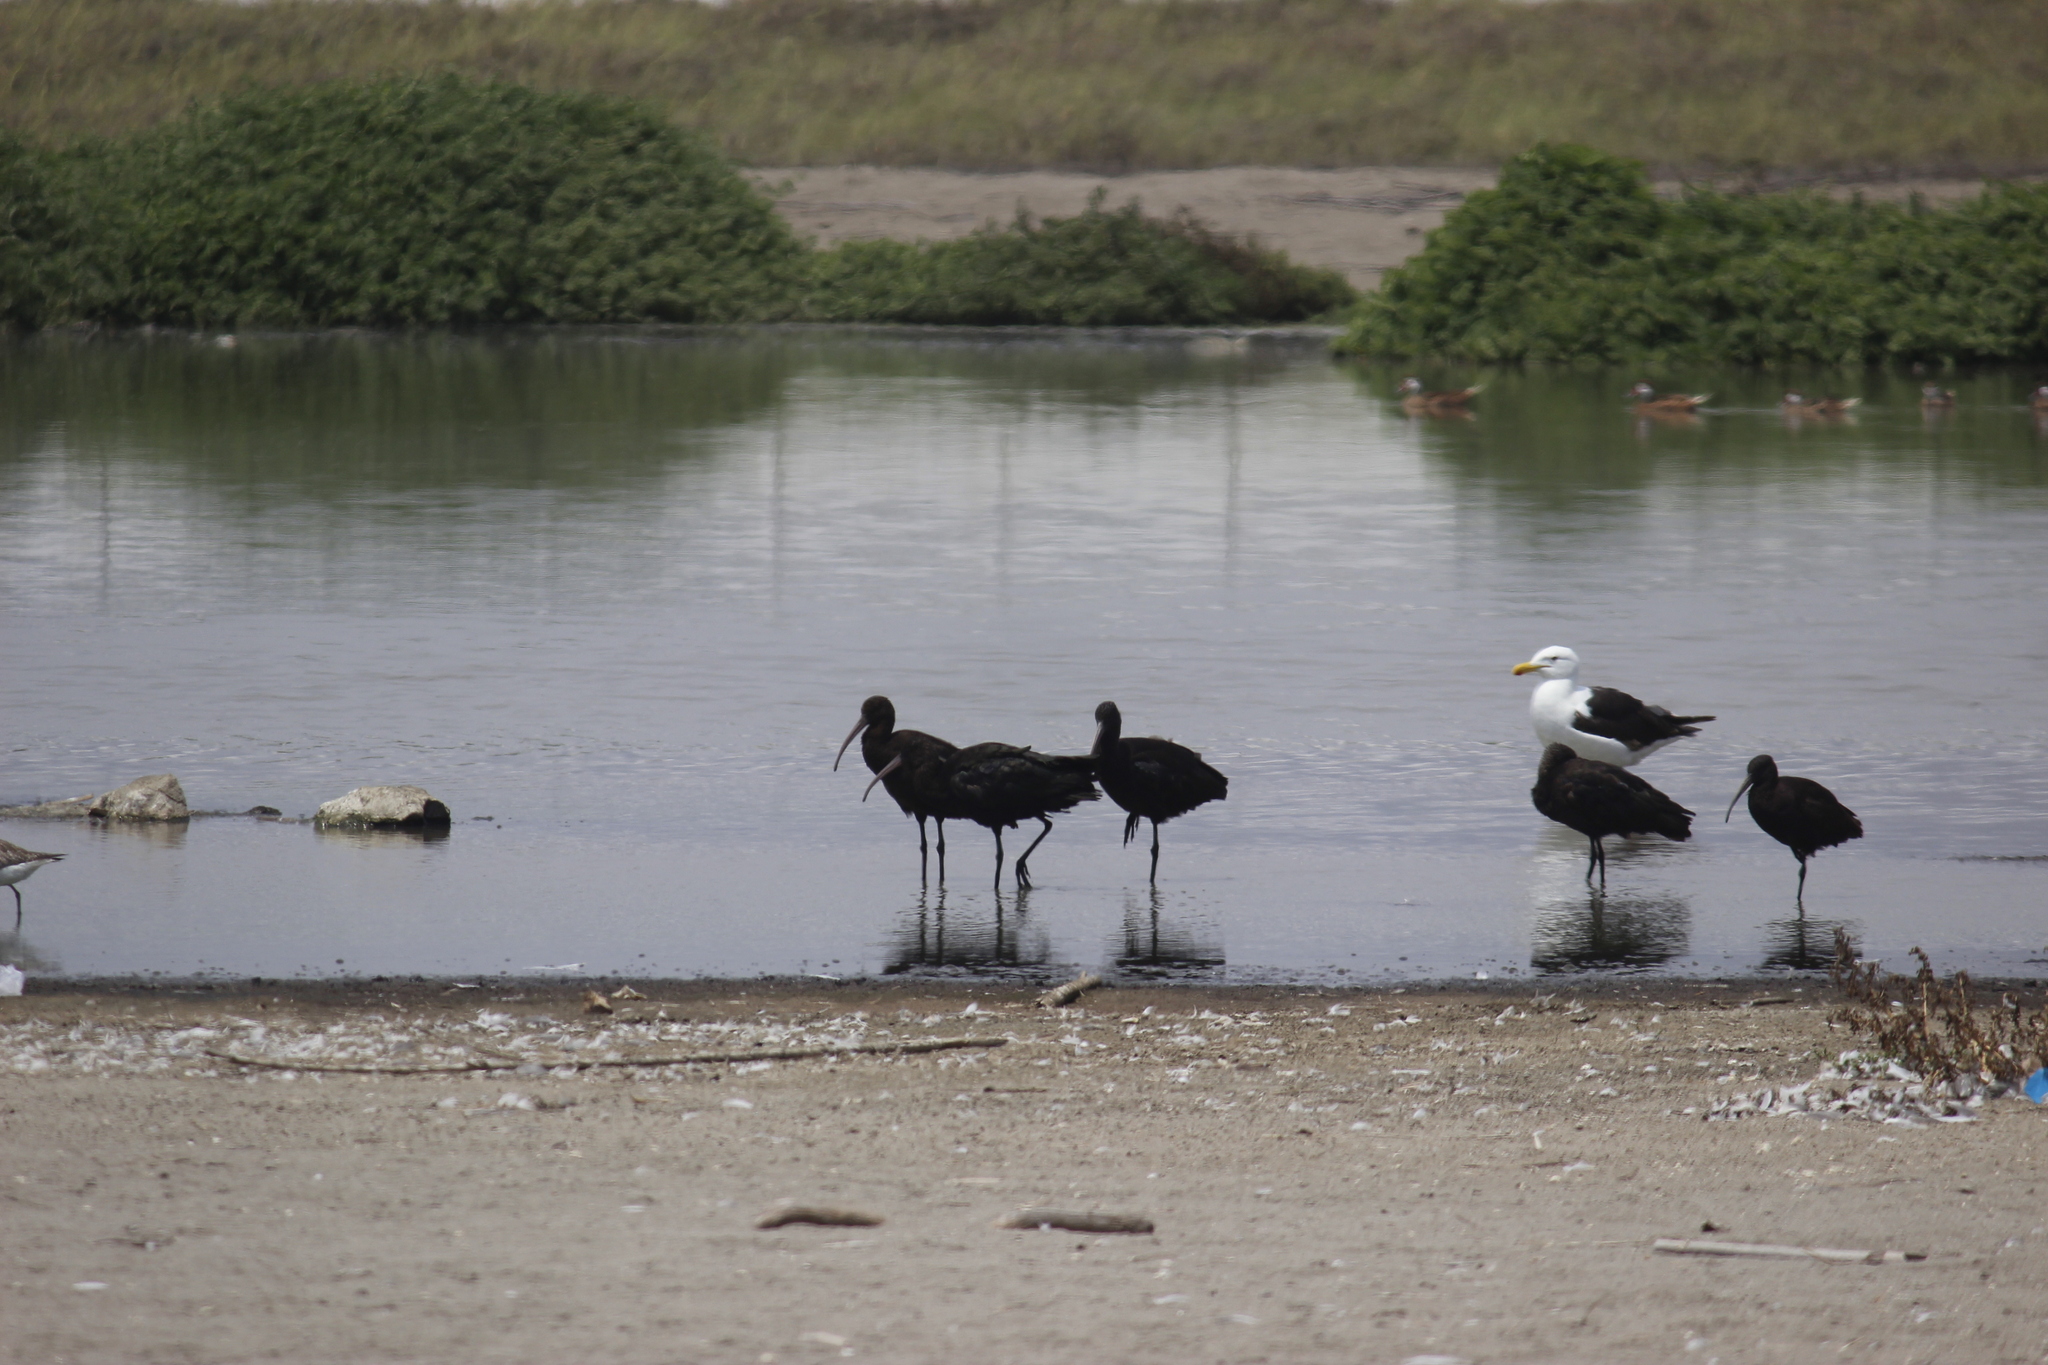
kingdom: Animalia
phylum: Chordata
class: Aves
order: Pelecaniformes
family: Threskiornithidae
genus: Plegadis
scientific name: Plegadis ridgwayi
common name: Puna ibis
